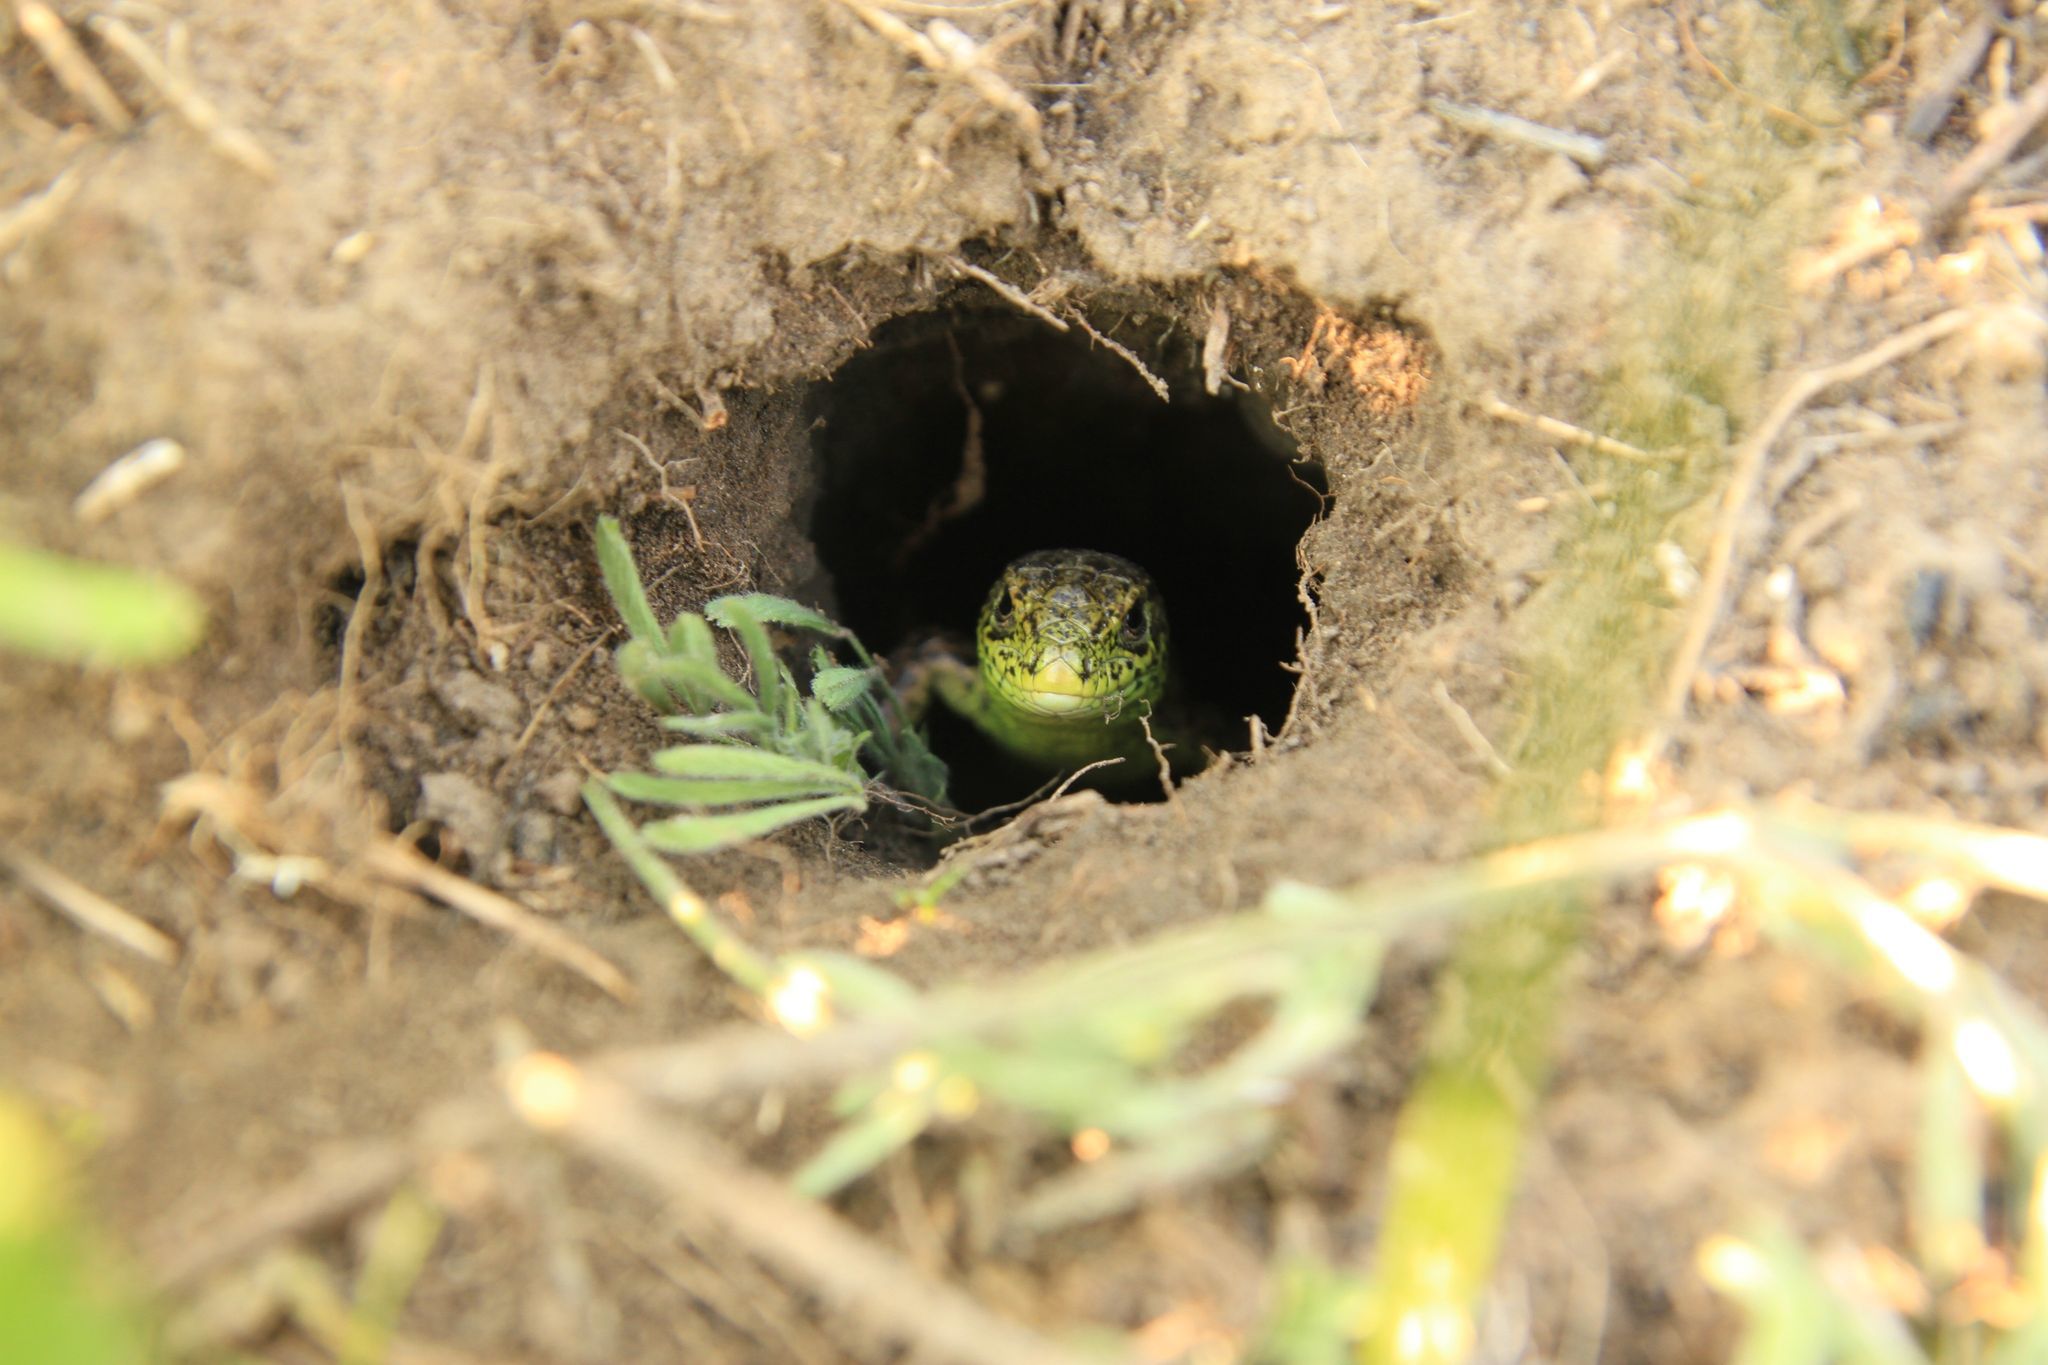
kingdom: Animalia
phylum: Chordata
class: Squamata
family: Lacertidae
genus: Lacerta
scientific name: Lacerta agilis
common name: Sand lizard
